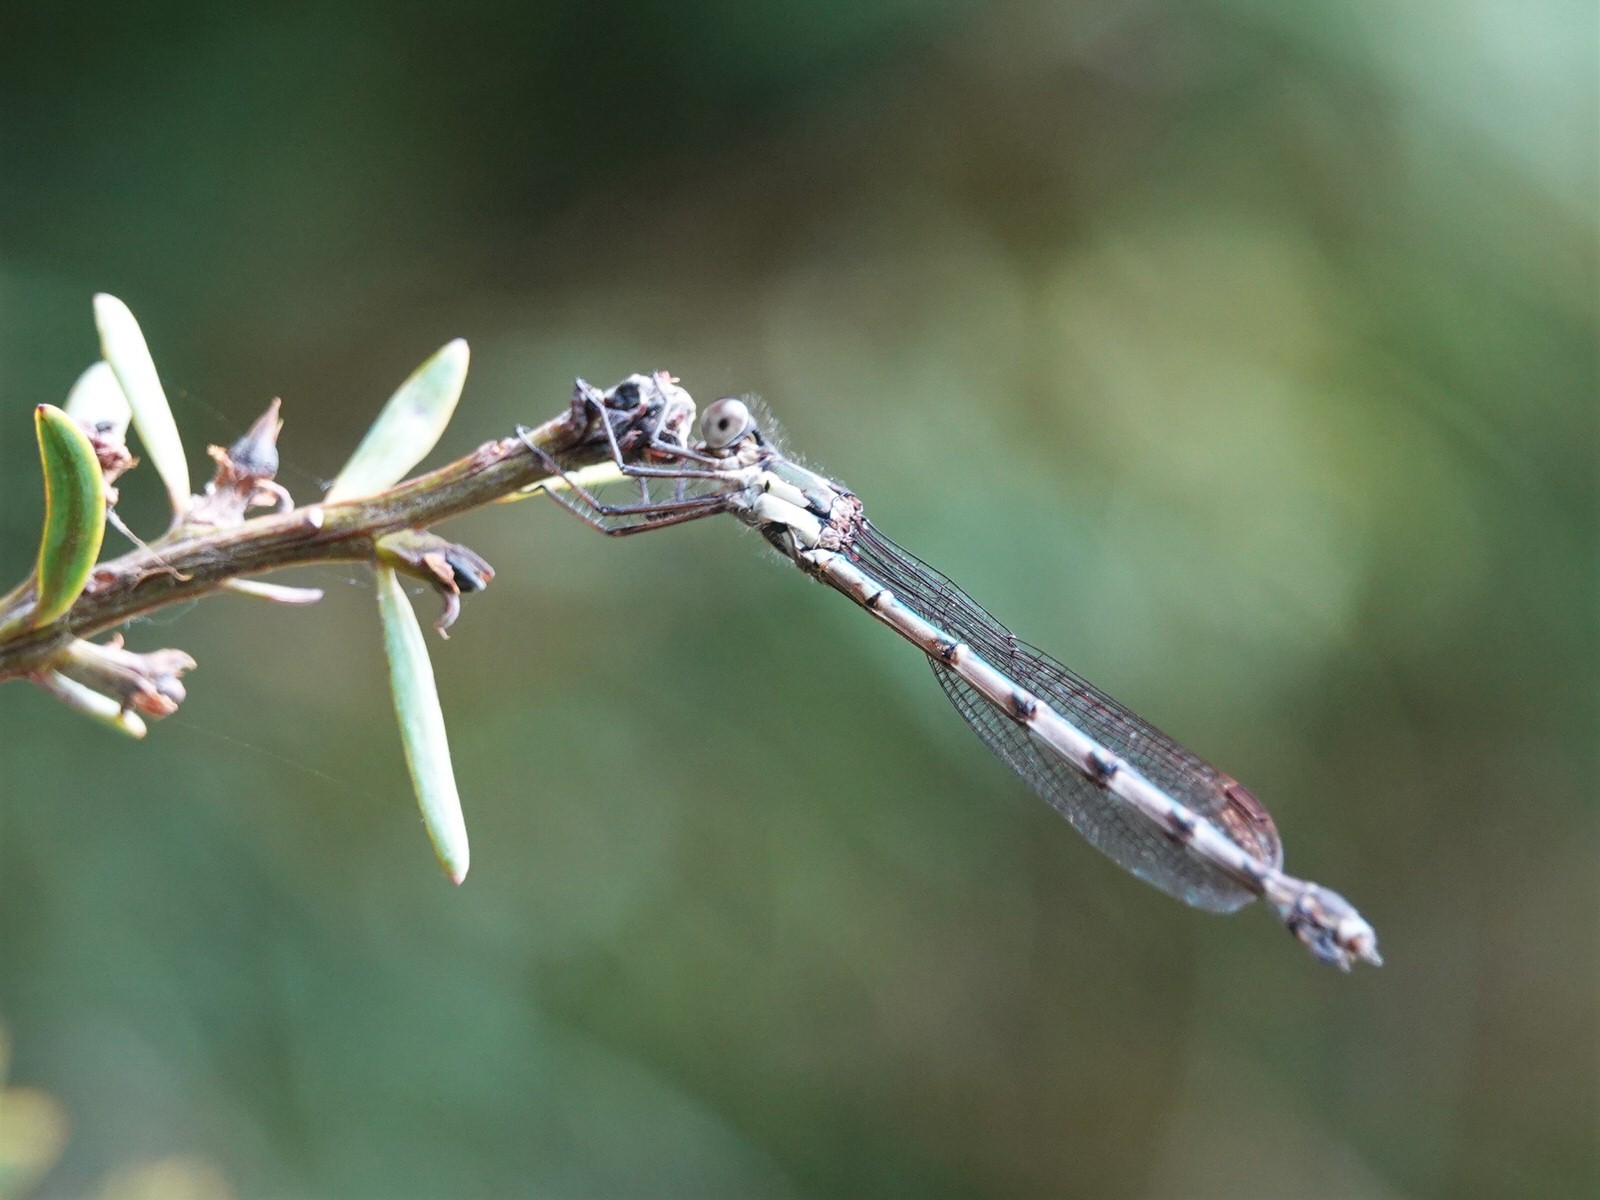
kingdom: Animalia
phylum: Arthropoda
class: Insecta
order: Odonata
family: Lestidae
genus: Austrolestes
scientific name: Austrolestes colensonis
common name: Blue damselfly
